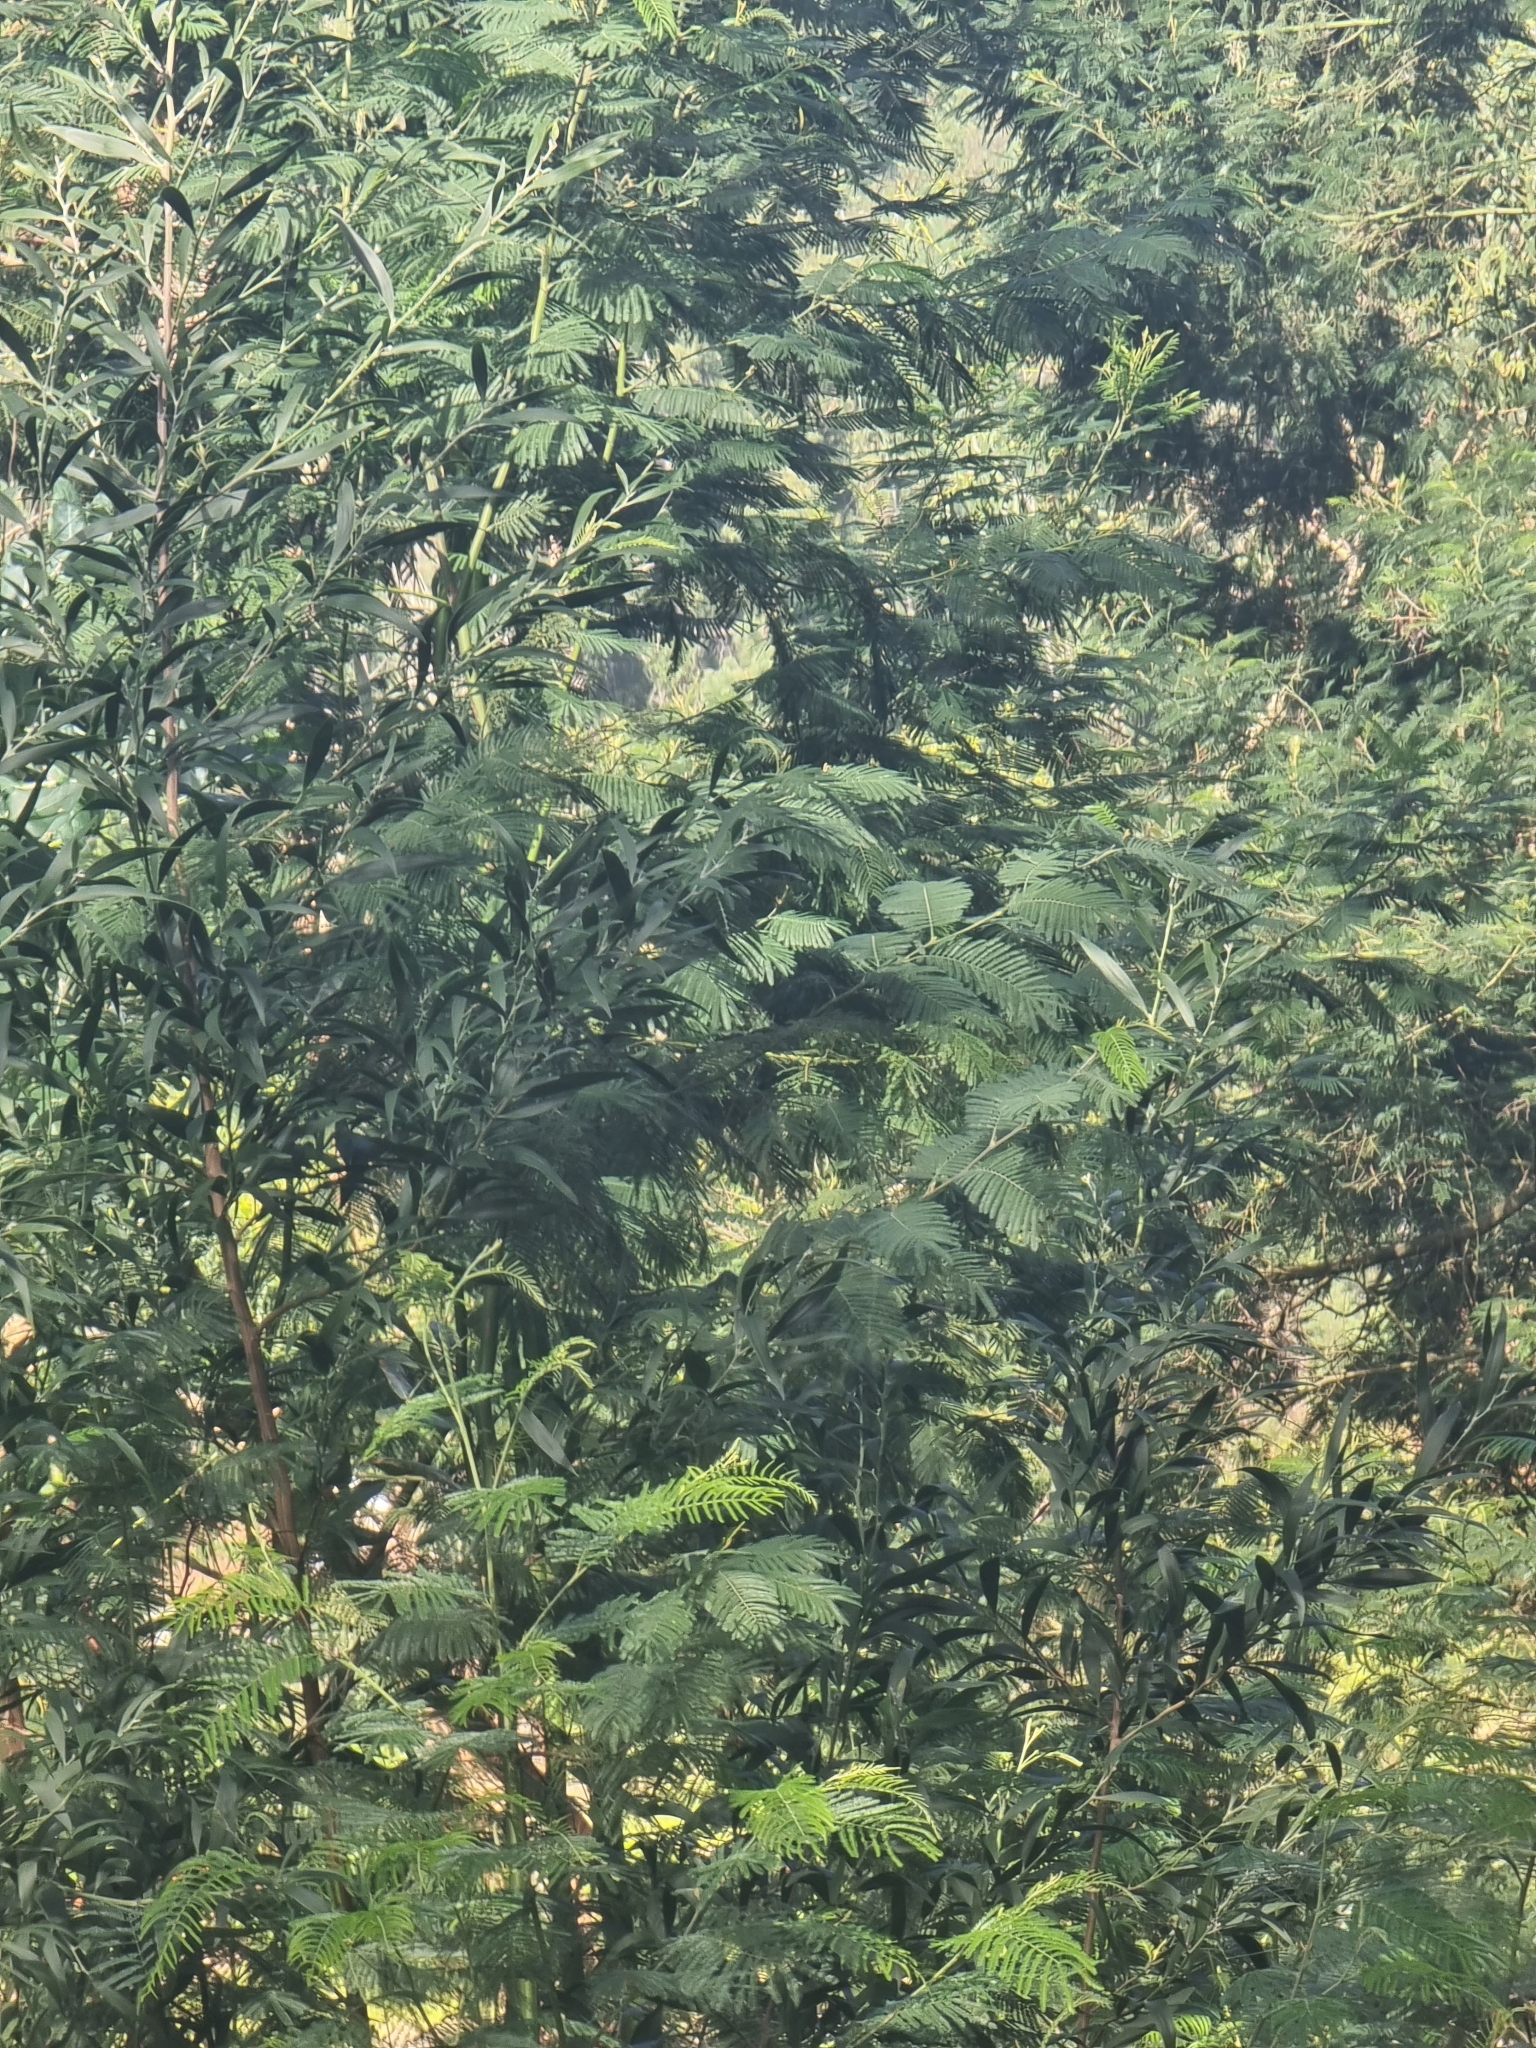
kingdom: Plantae
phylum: Tracheophyta
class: Magnoliopsida
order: Fabales
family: Fabaceae
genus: Acacia
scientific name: Acacia mearnsii
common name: Black wattle
